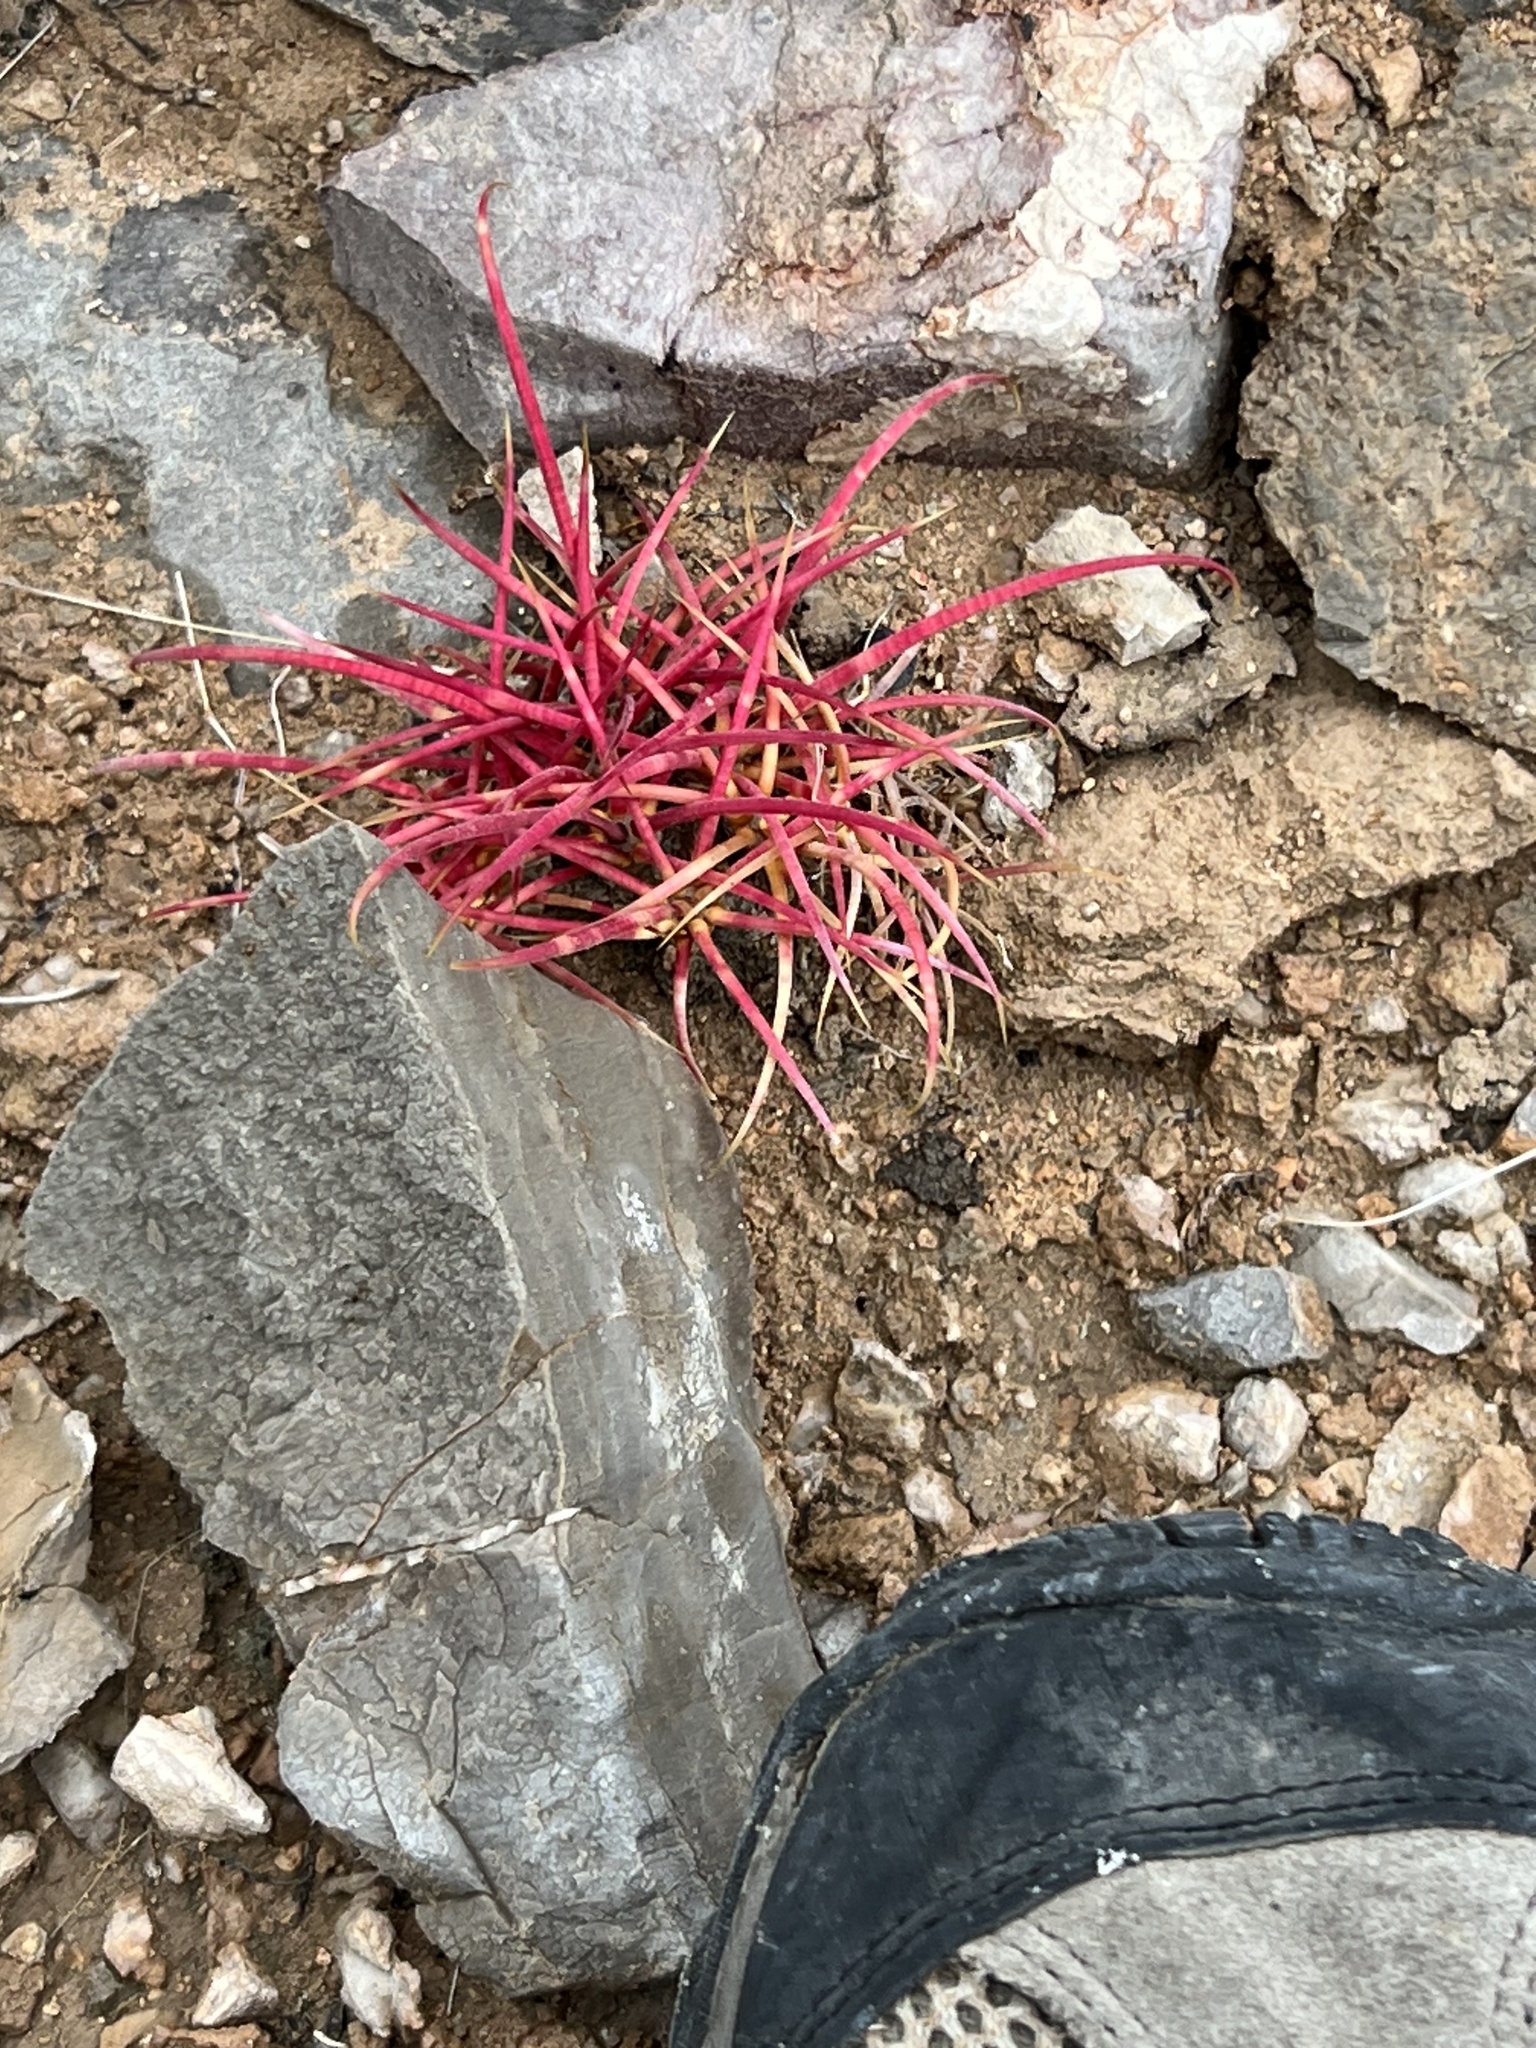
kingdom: Plantae
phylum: Tracheophyta
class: Magnoliopsida
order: Caryophyllales
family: Cactaceae
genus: Ferocactus
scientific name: Ferocactus cylindraceus
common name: California barrel cactus
